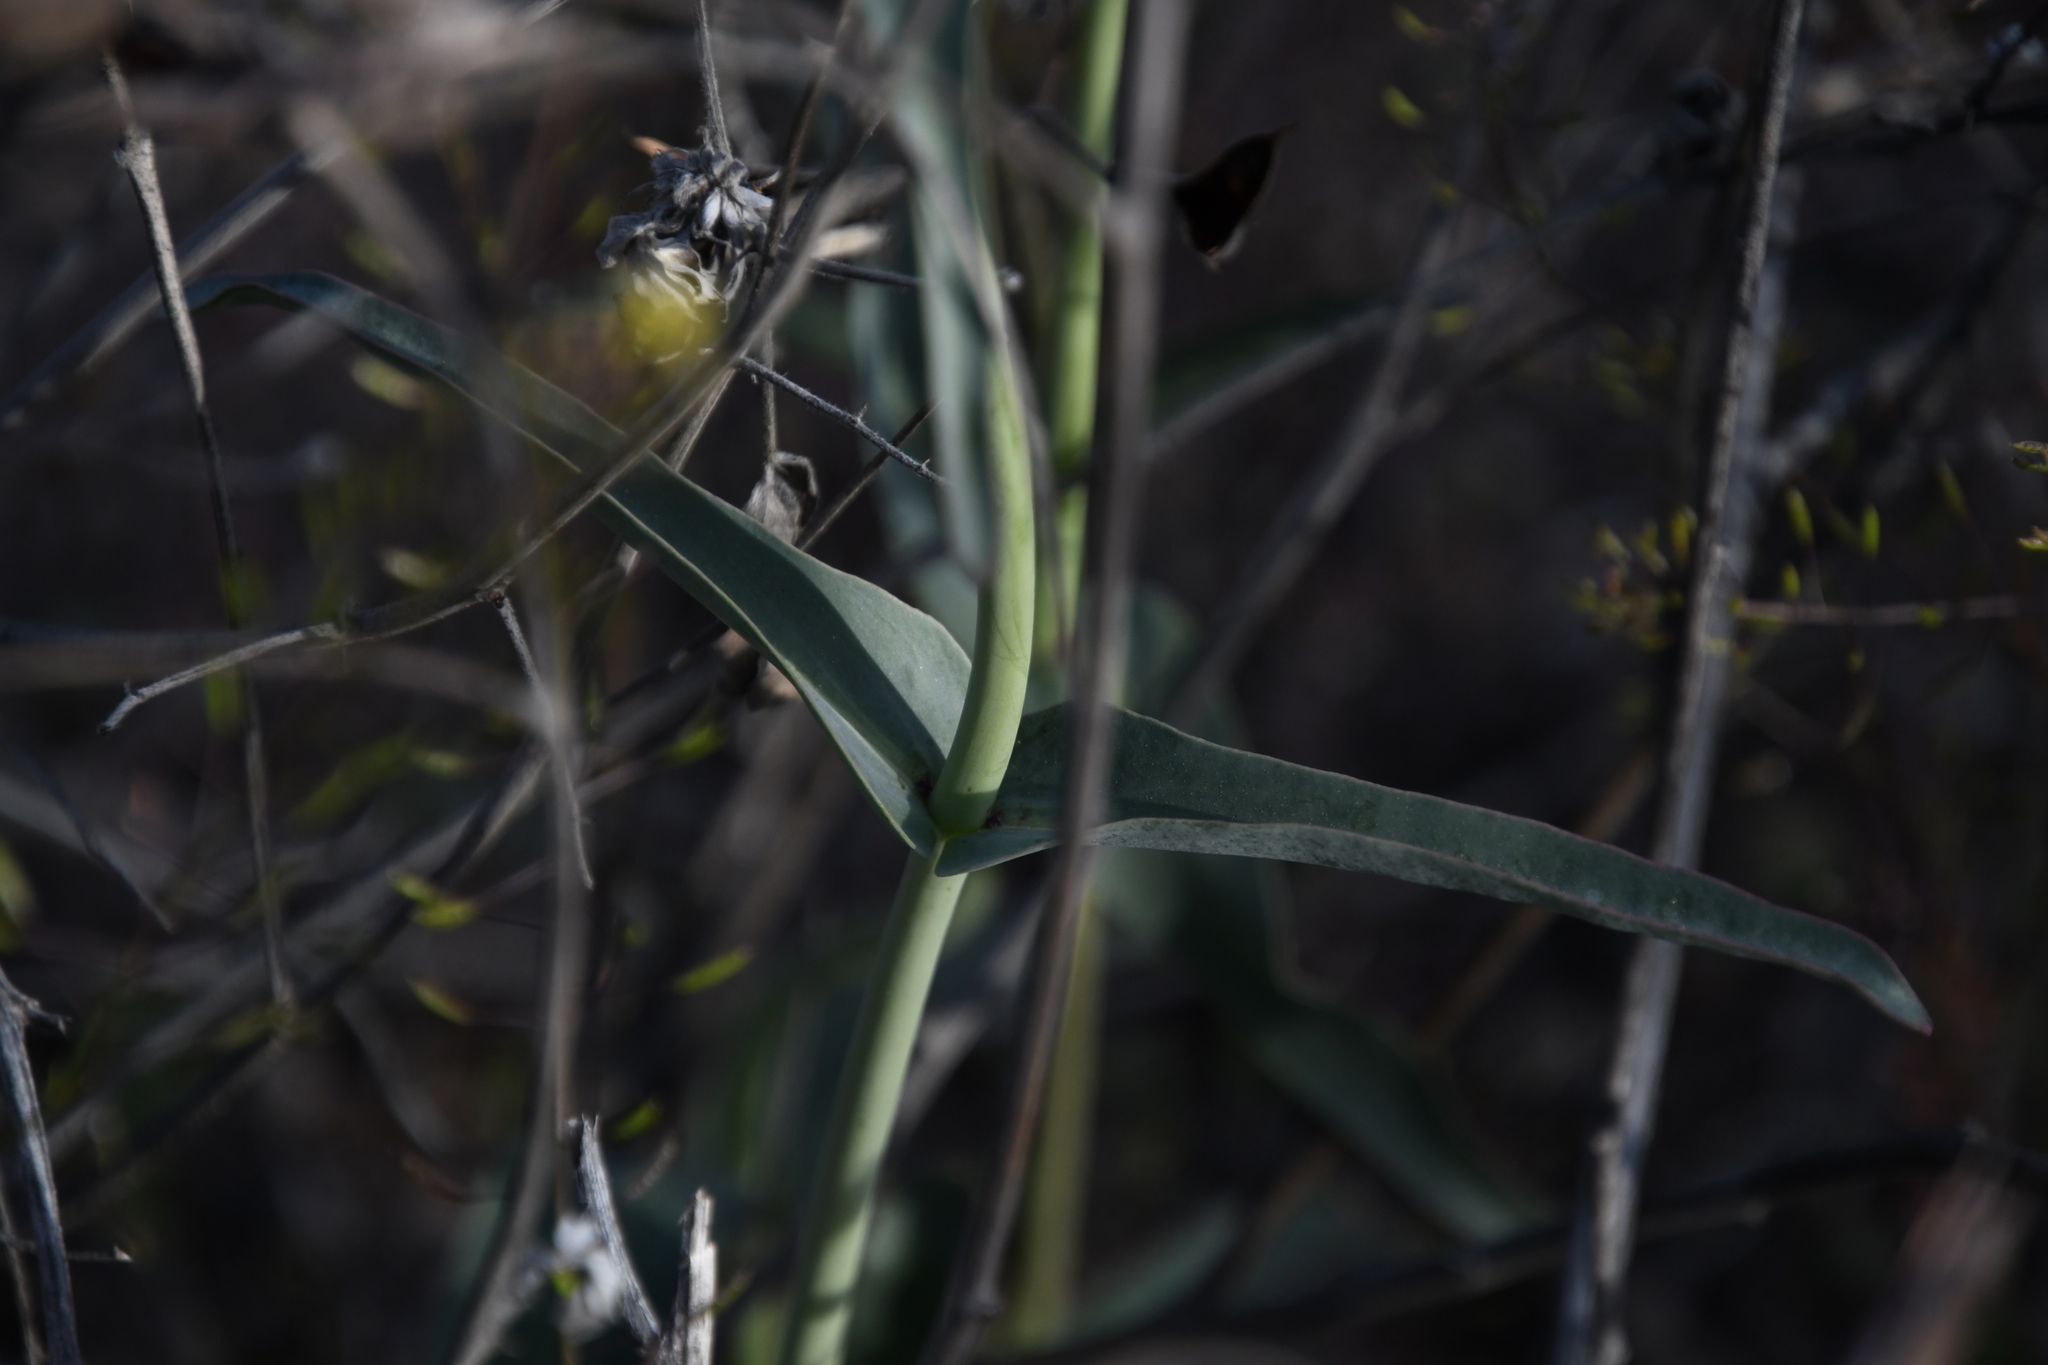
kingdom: Plantae
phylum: Tracheophyta
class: Magnoliopsida
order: Lamiales
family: Plantaginaceae
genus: Penstemon
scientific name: Penstemon parryi
